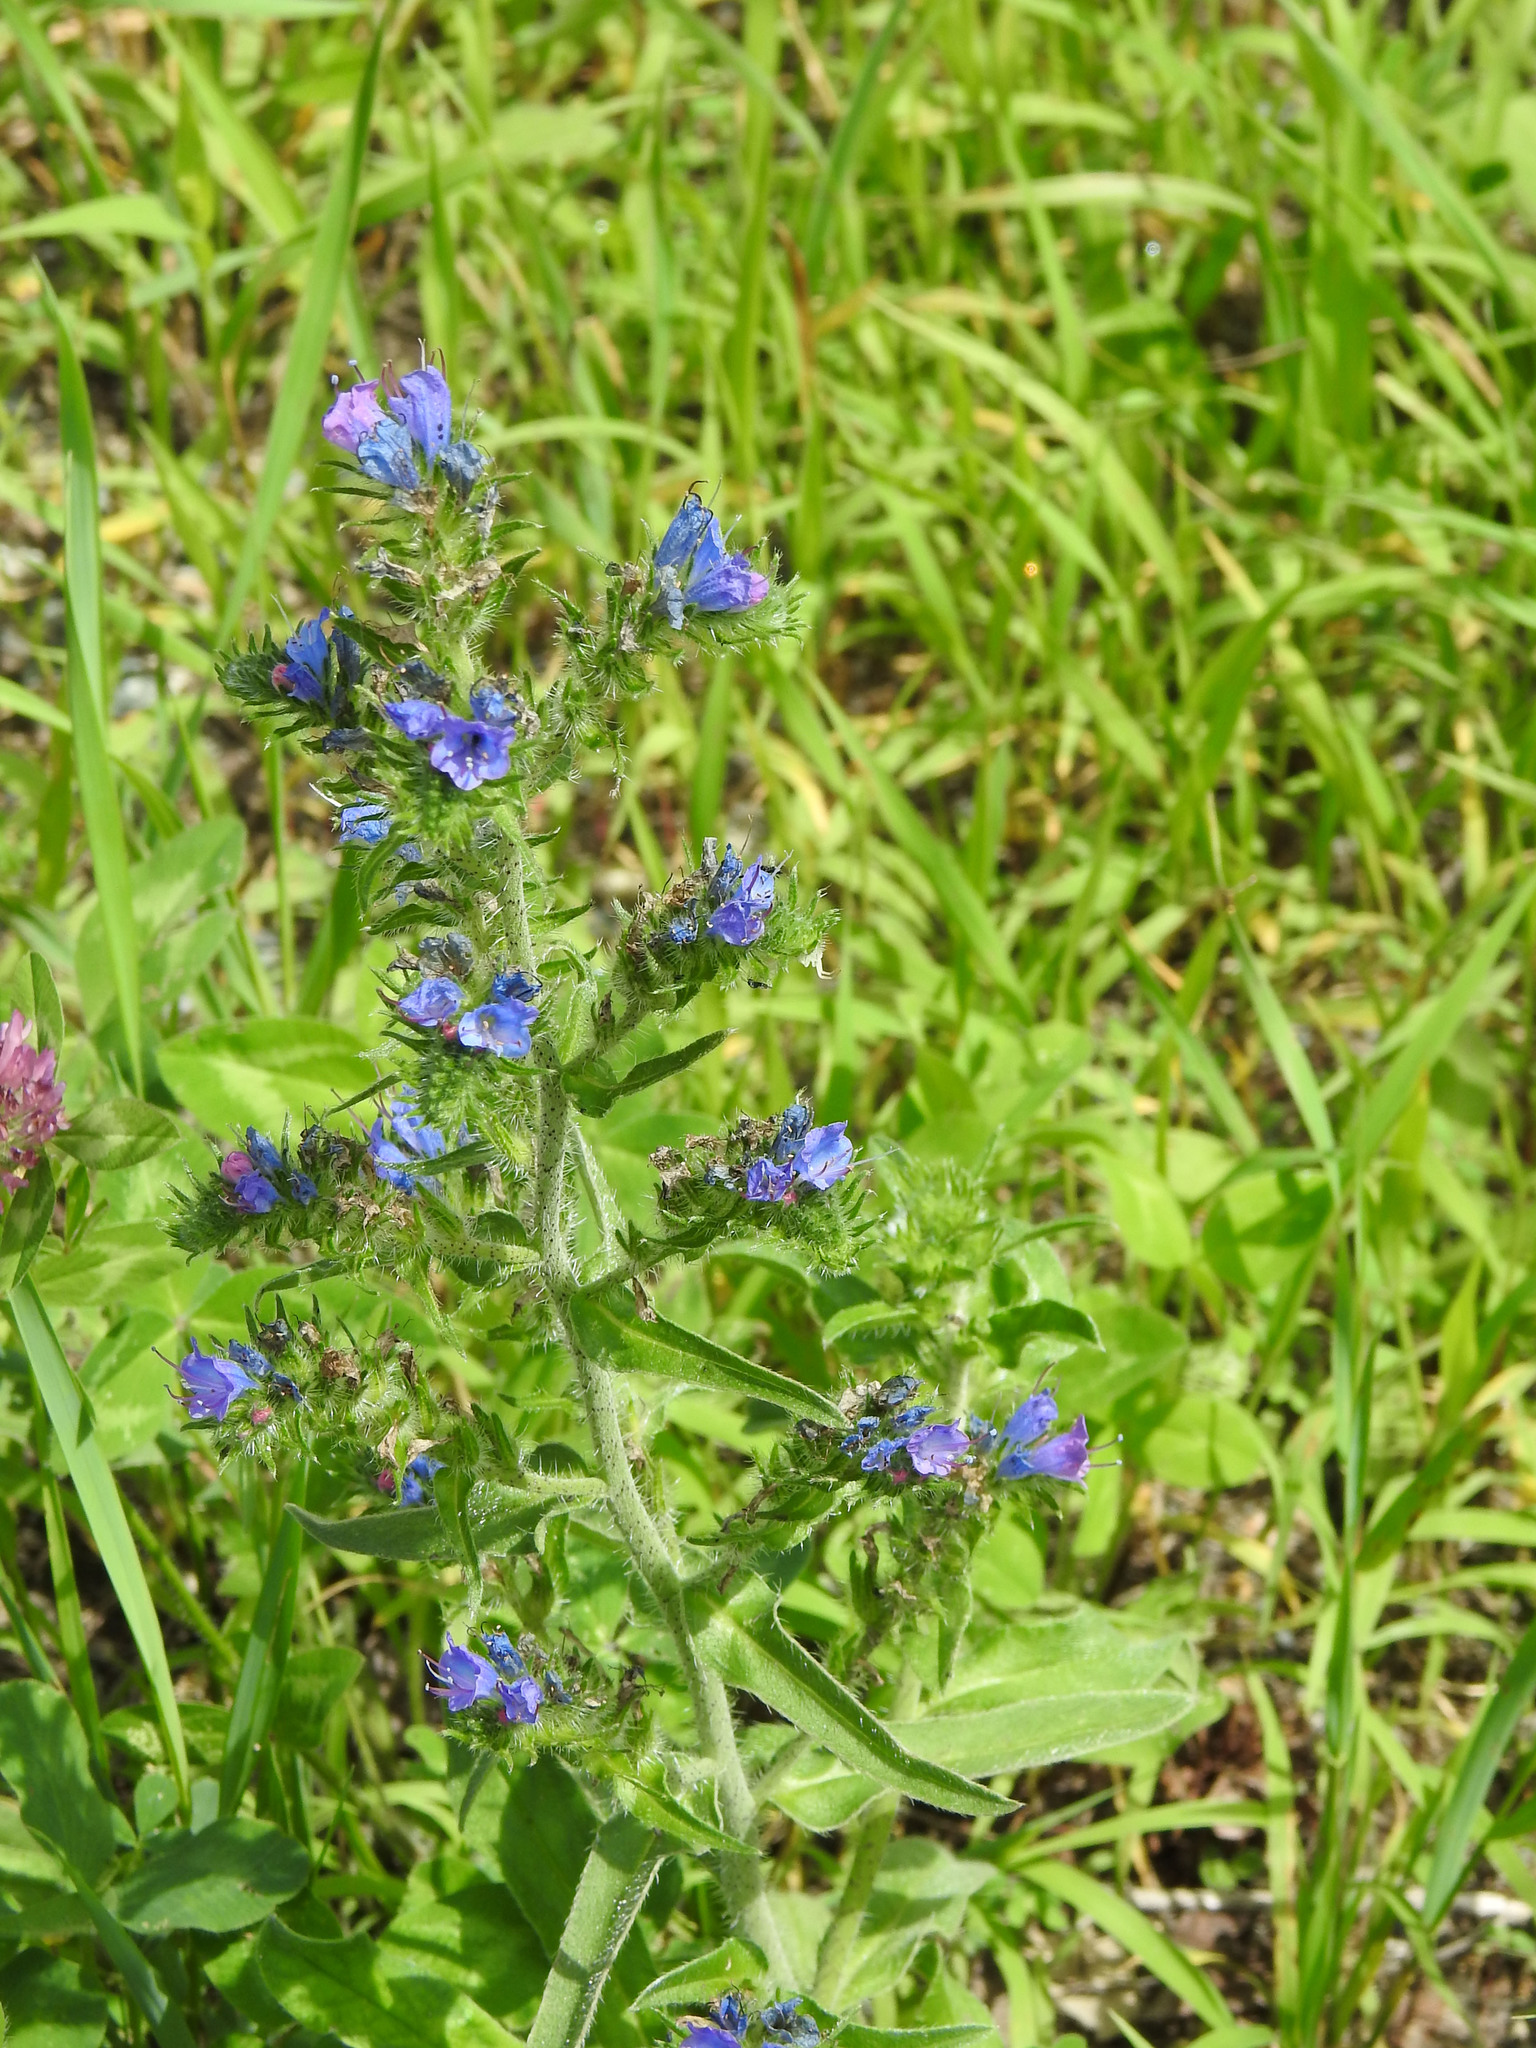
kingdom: Plantae
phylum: Tracheophyta
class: Magnoliopsida
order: Boraginales
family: Boraginaceae
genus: Echium
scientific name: Echium vulgare
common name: Common viper's bugloss
